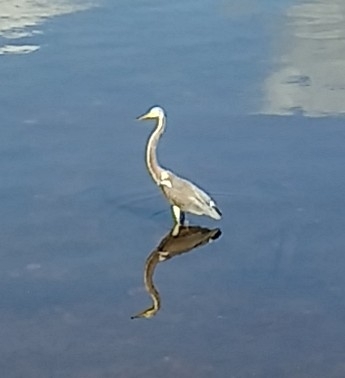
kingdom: Animalia
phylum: Chordata
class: Aves
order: Pelecaniformes
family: Ardeidae
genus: Egretta
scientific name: Egretta tricolor
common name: Tricolored heron
